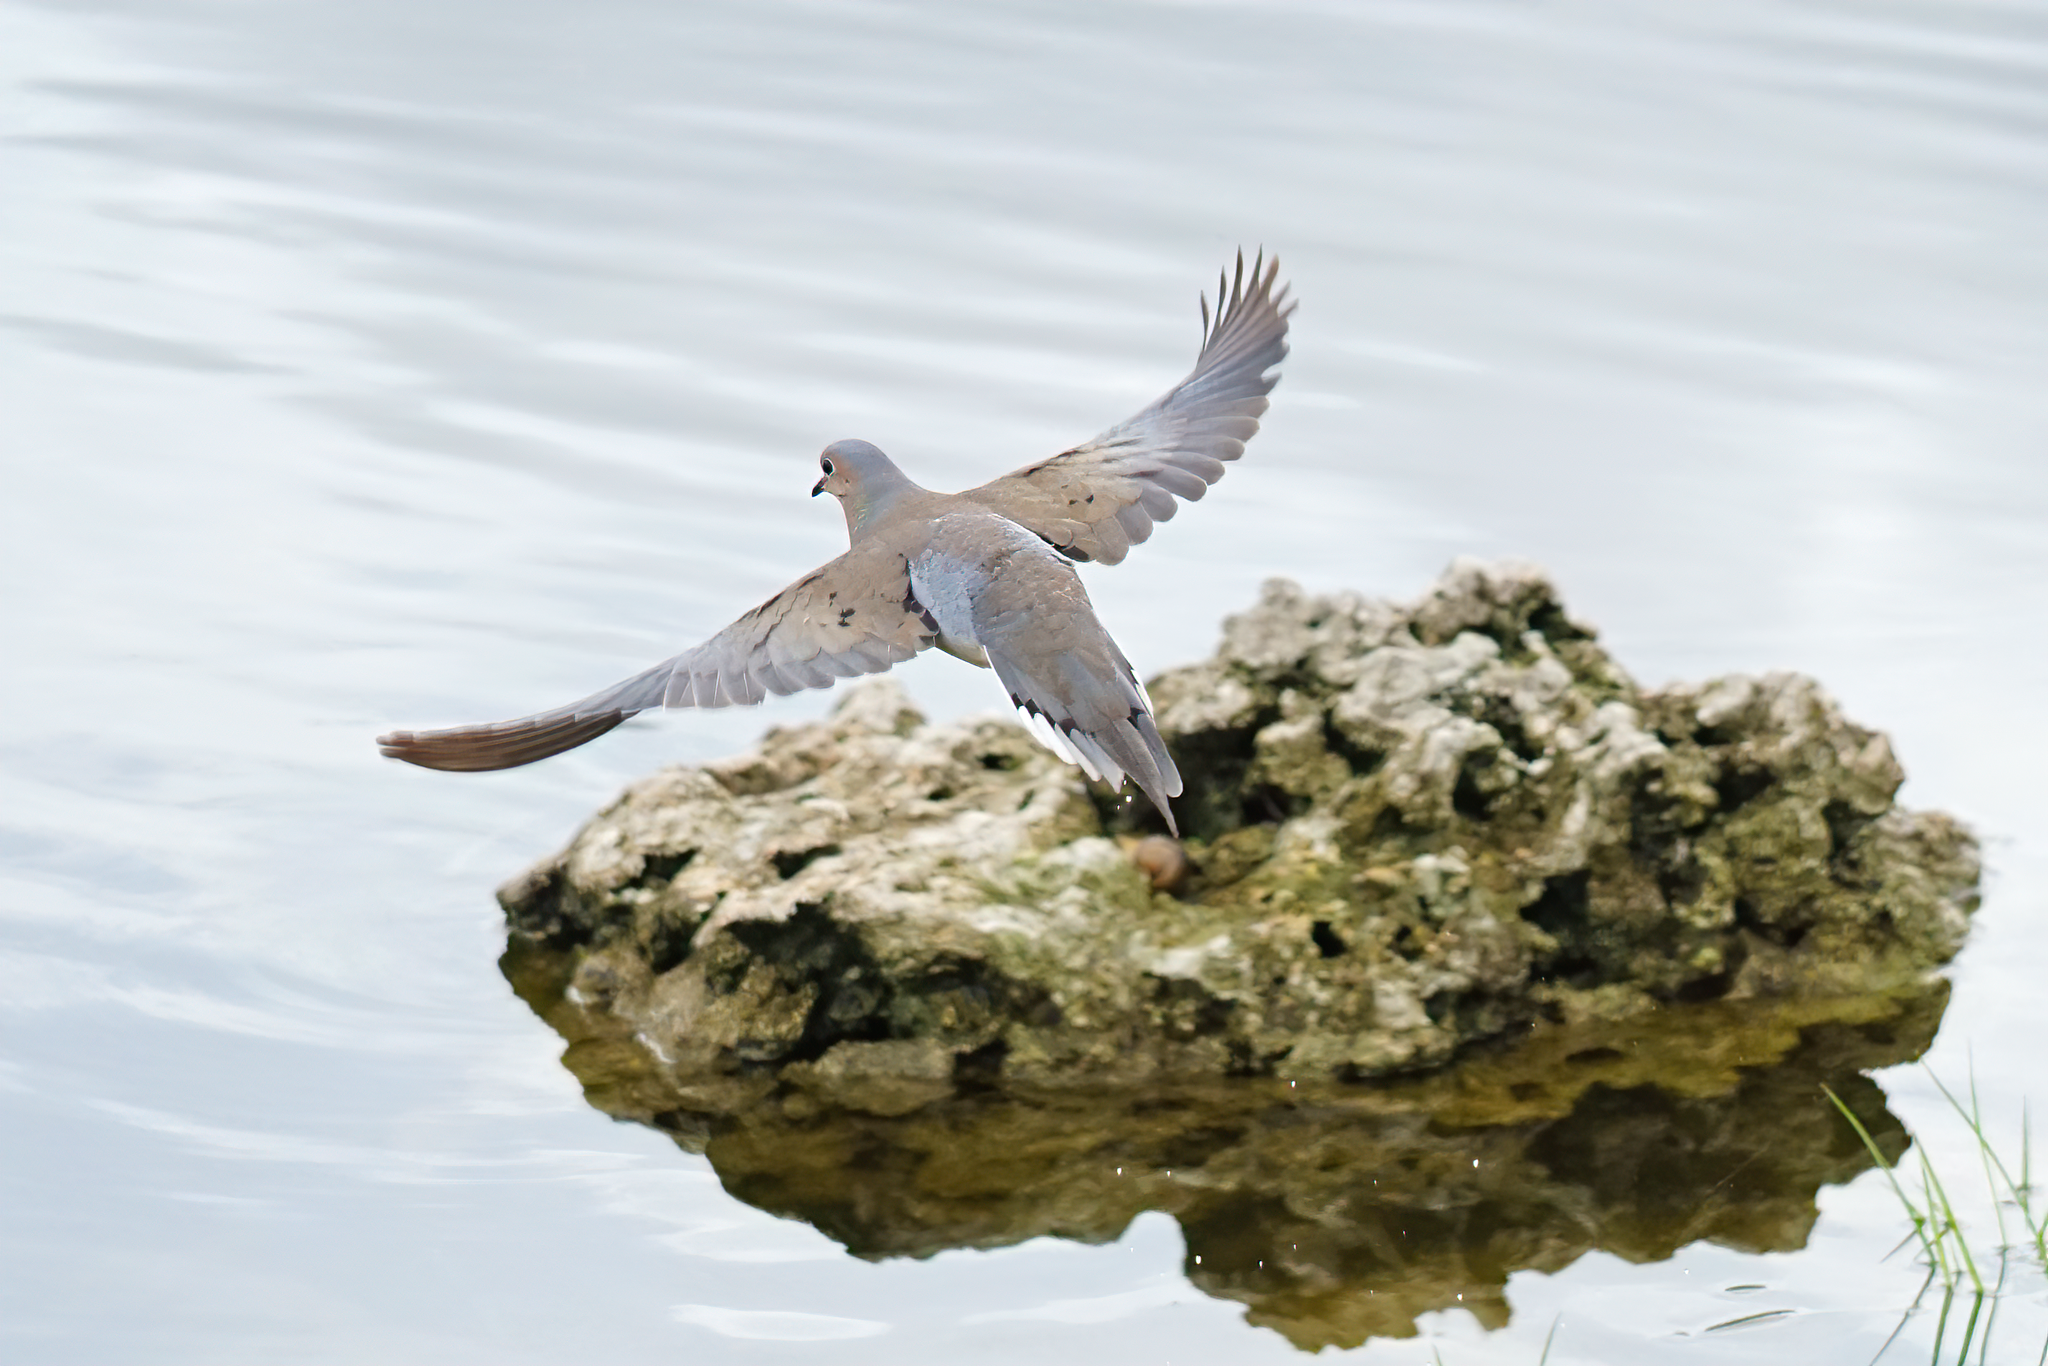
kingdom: Animalia
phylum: Chordata
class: Aves
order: Columbiformes
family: Columbidae
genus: Zenaida
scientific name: Zenaida macroura
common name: Mourning dove
